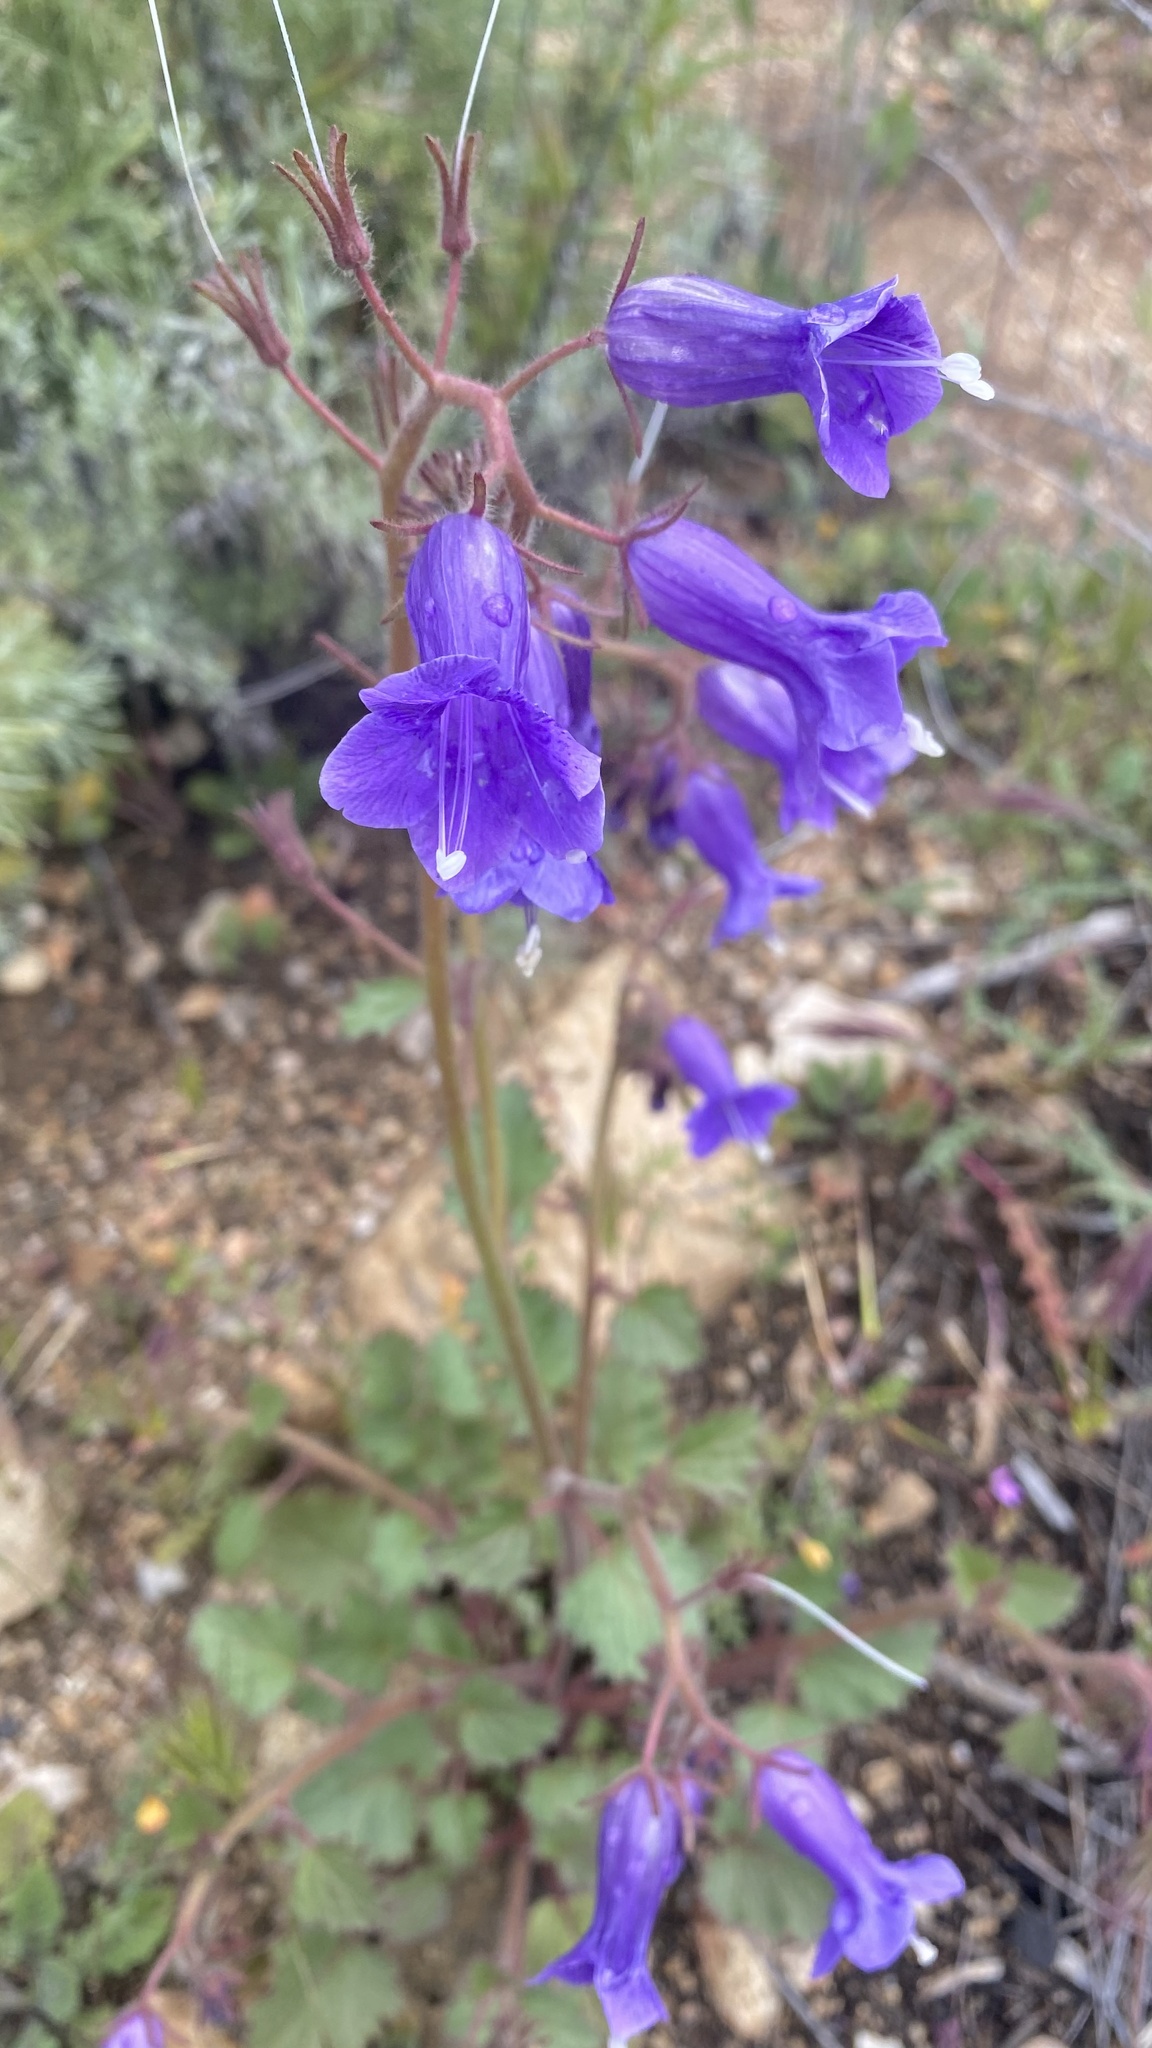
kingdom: Plantae
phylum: Tracheophyta
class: Magnoliopsida
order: Boraginales
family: Hydrophyllaceae
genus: Phacelia
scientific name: Phacelia minor
